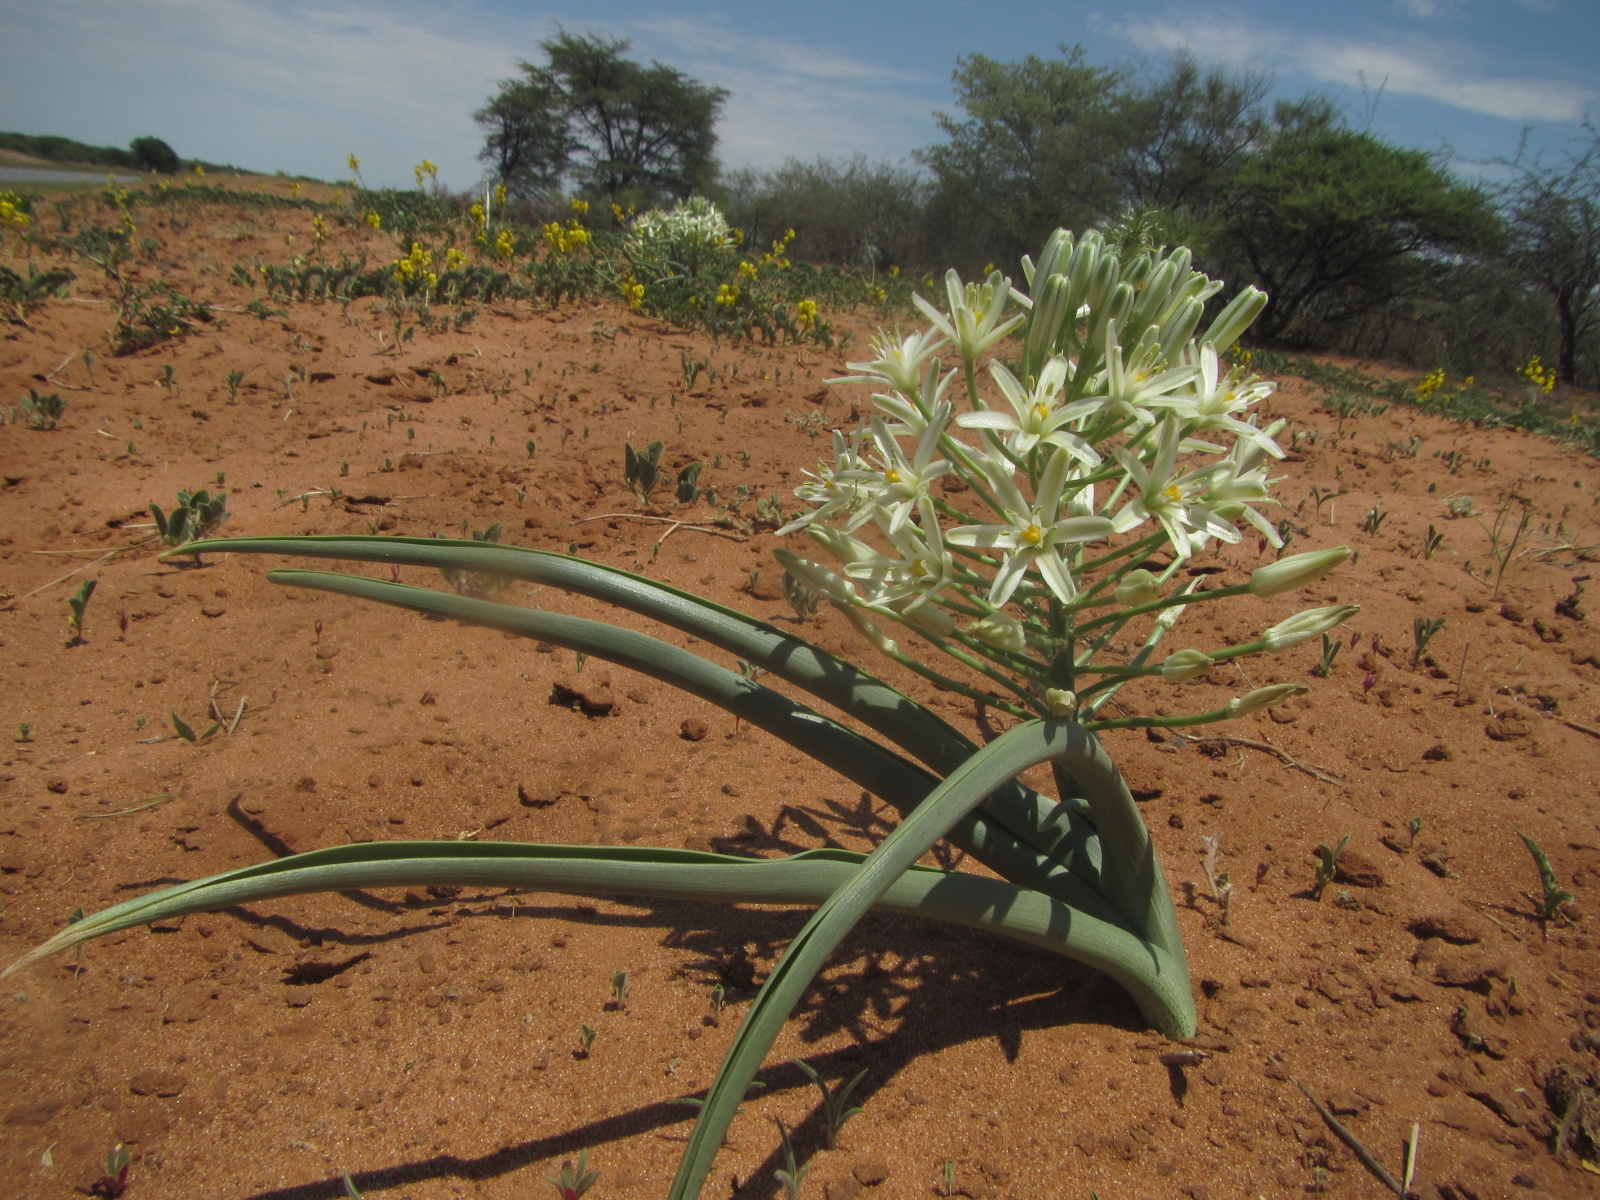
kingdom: Plantae
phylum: Tracheophyta
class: Liliopsida
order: Asparagales
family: Asparagaceae
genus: Albuca
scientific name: Albuca seineri
